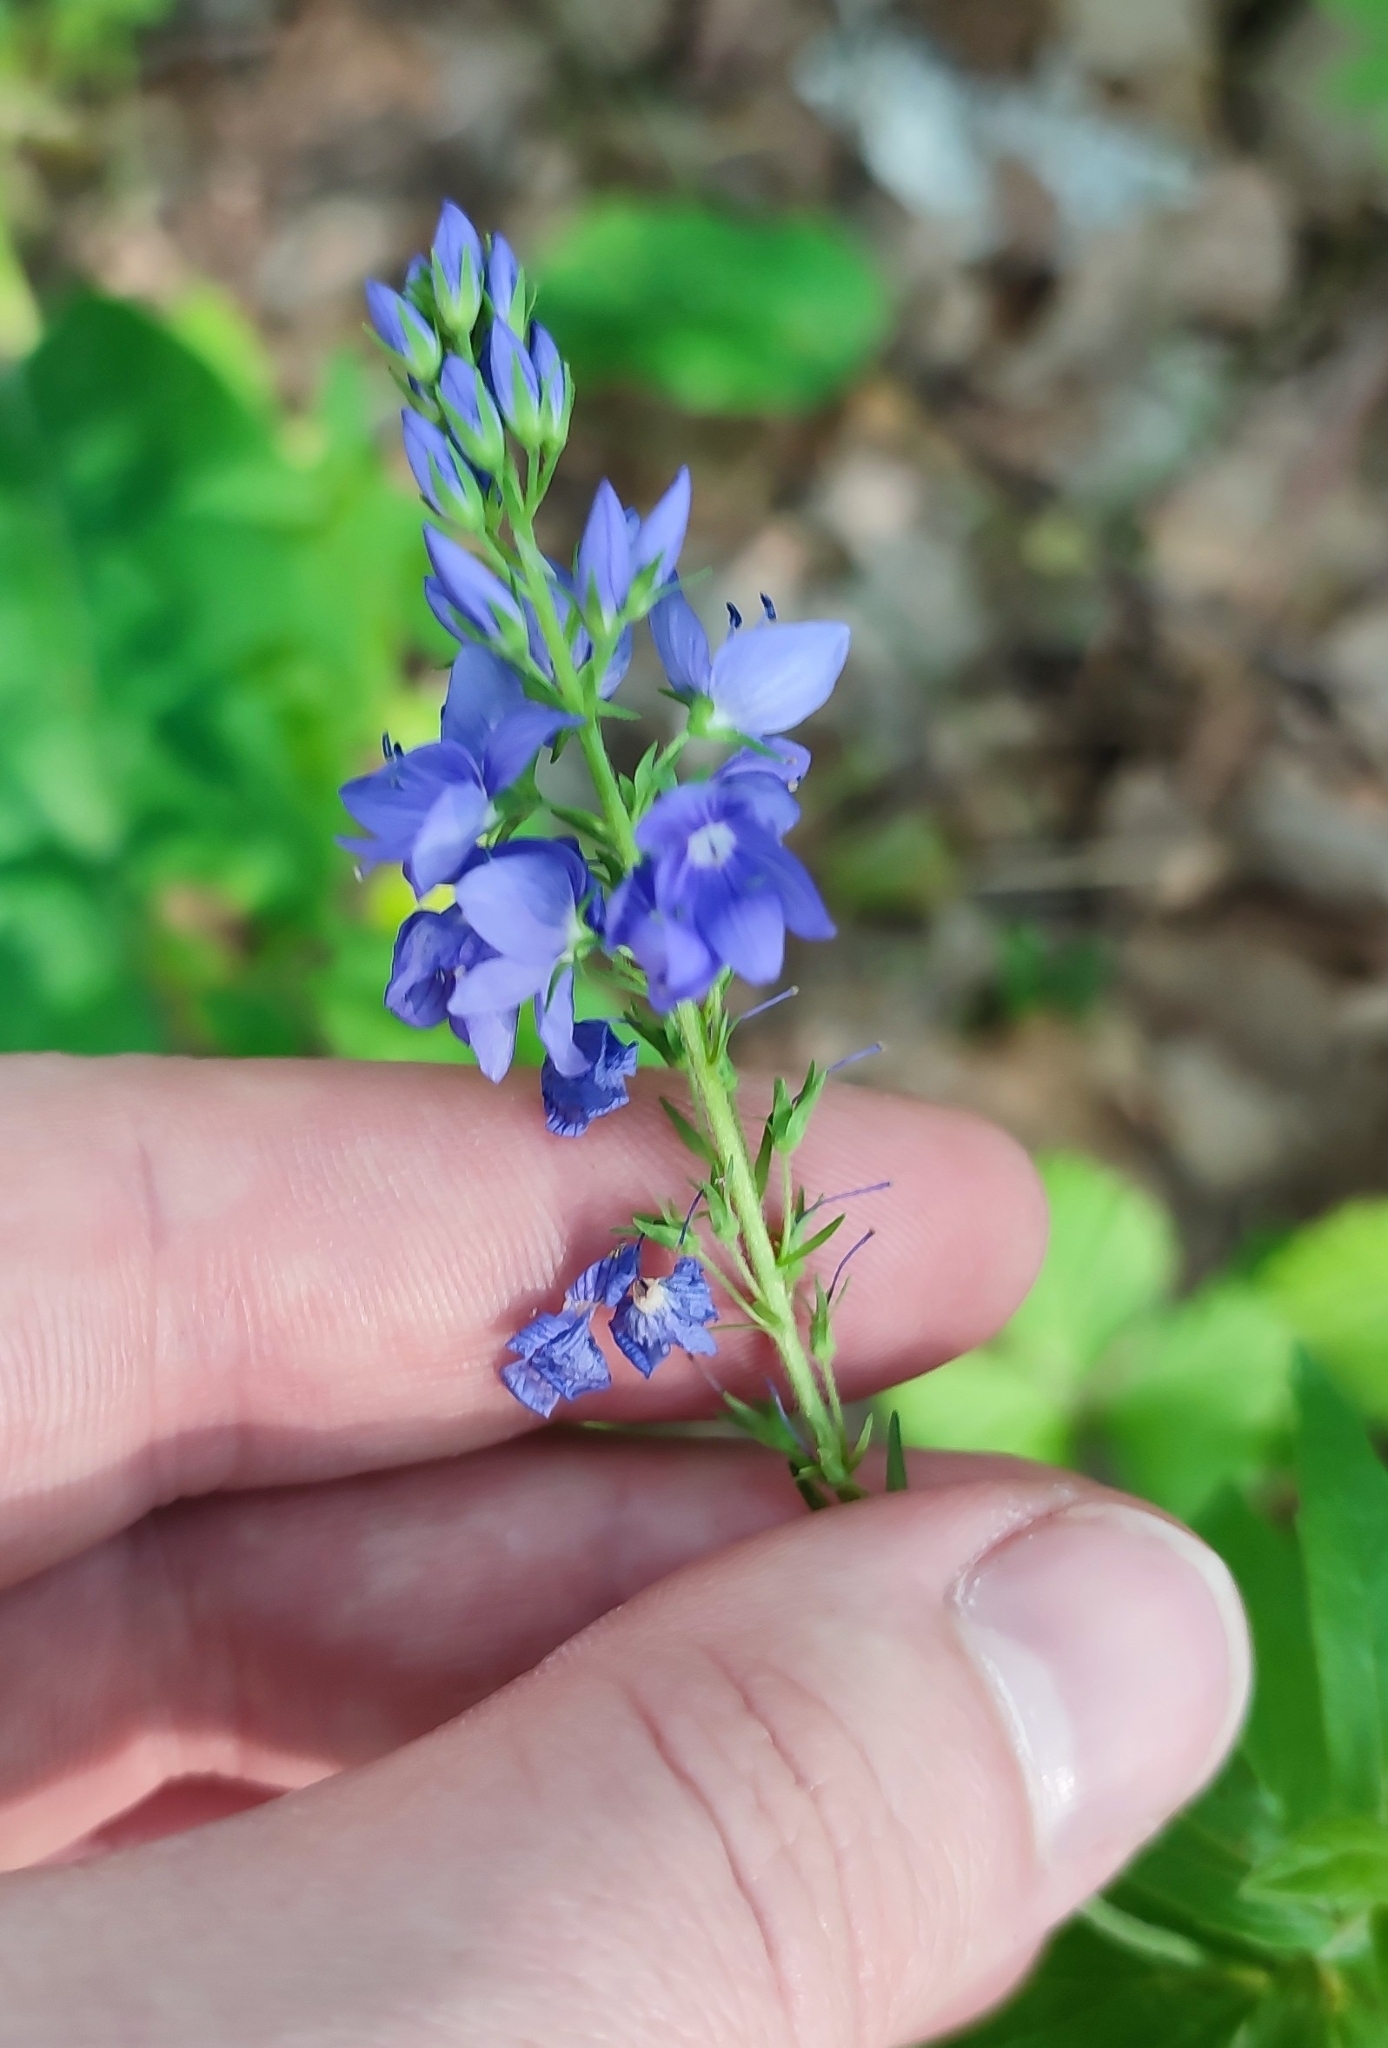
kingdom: Plantae
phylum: Tracheophyta
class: Magnoliopsida
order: Lamiales
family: Plantaginaceae
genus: Veronica
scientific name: Veronica teucrium
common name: Large speedwell
